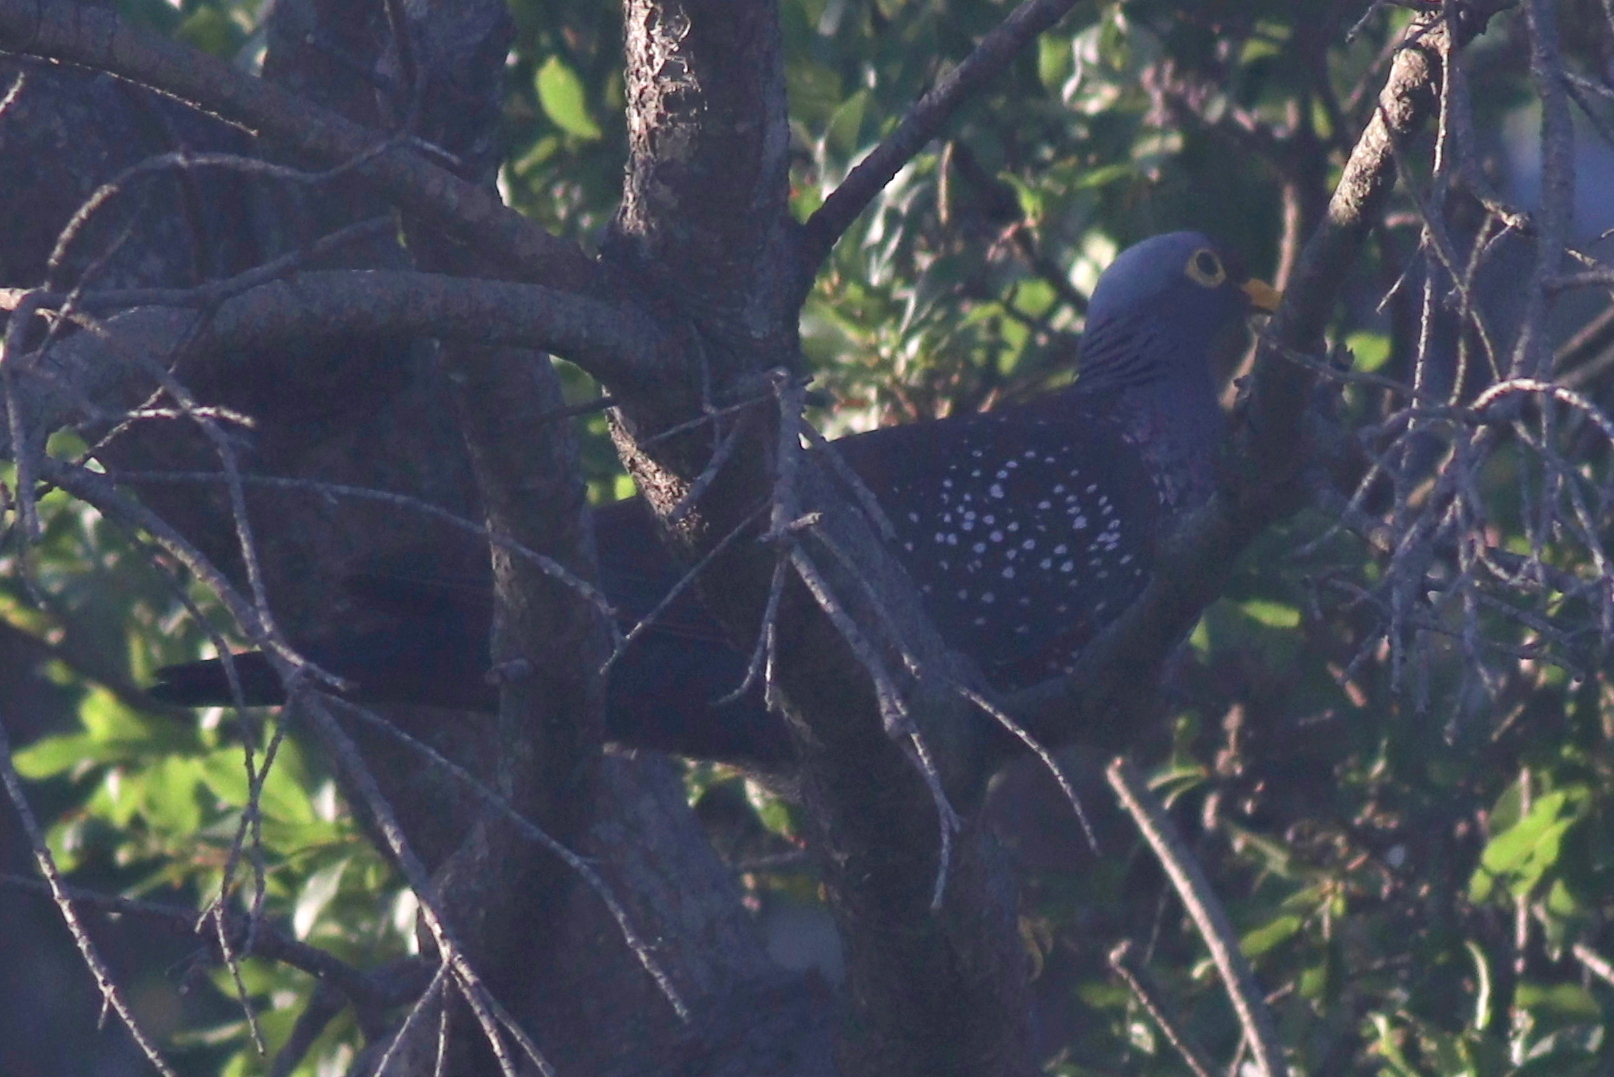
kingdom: Animalia
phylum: Chordata
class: Aves
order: Columbiformes
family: Columbidae
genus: Columba
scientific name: Columba arquatrix
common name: African olive pigeon
